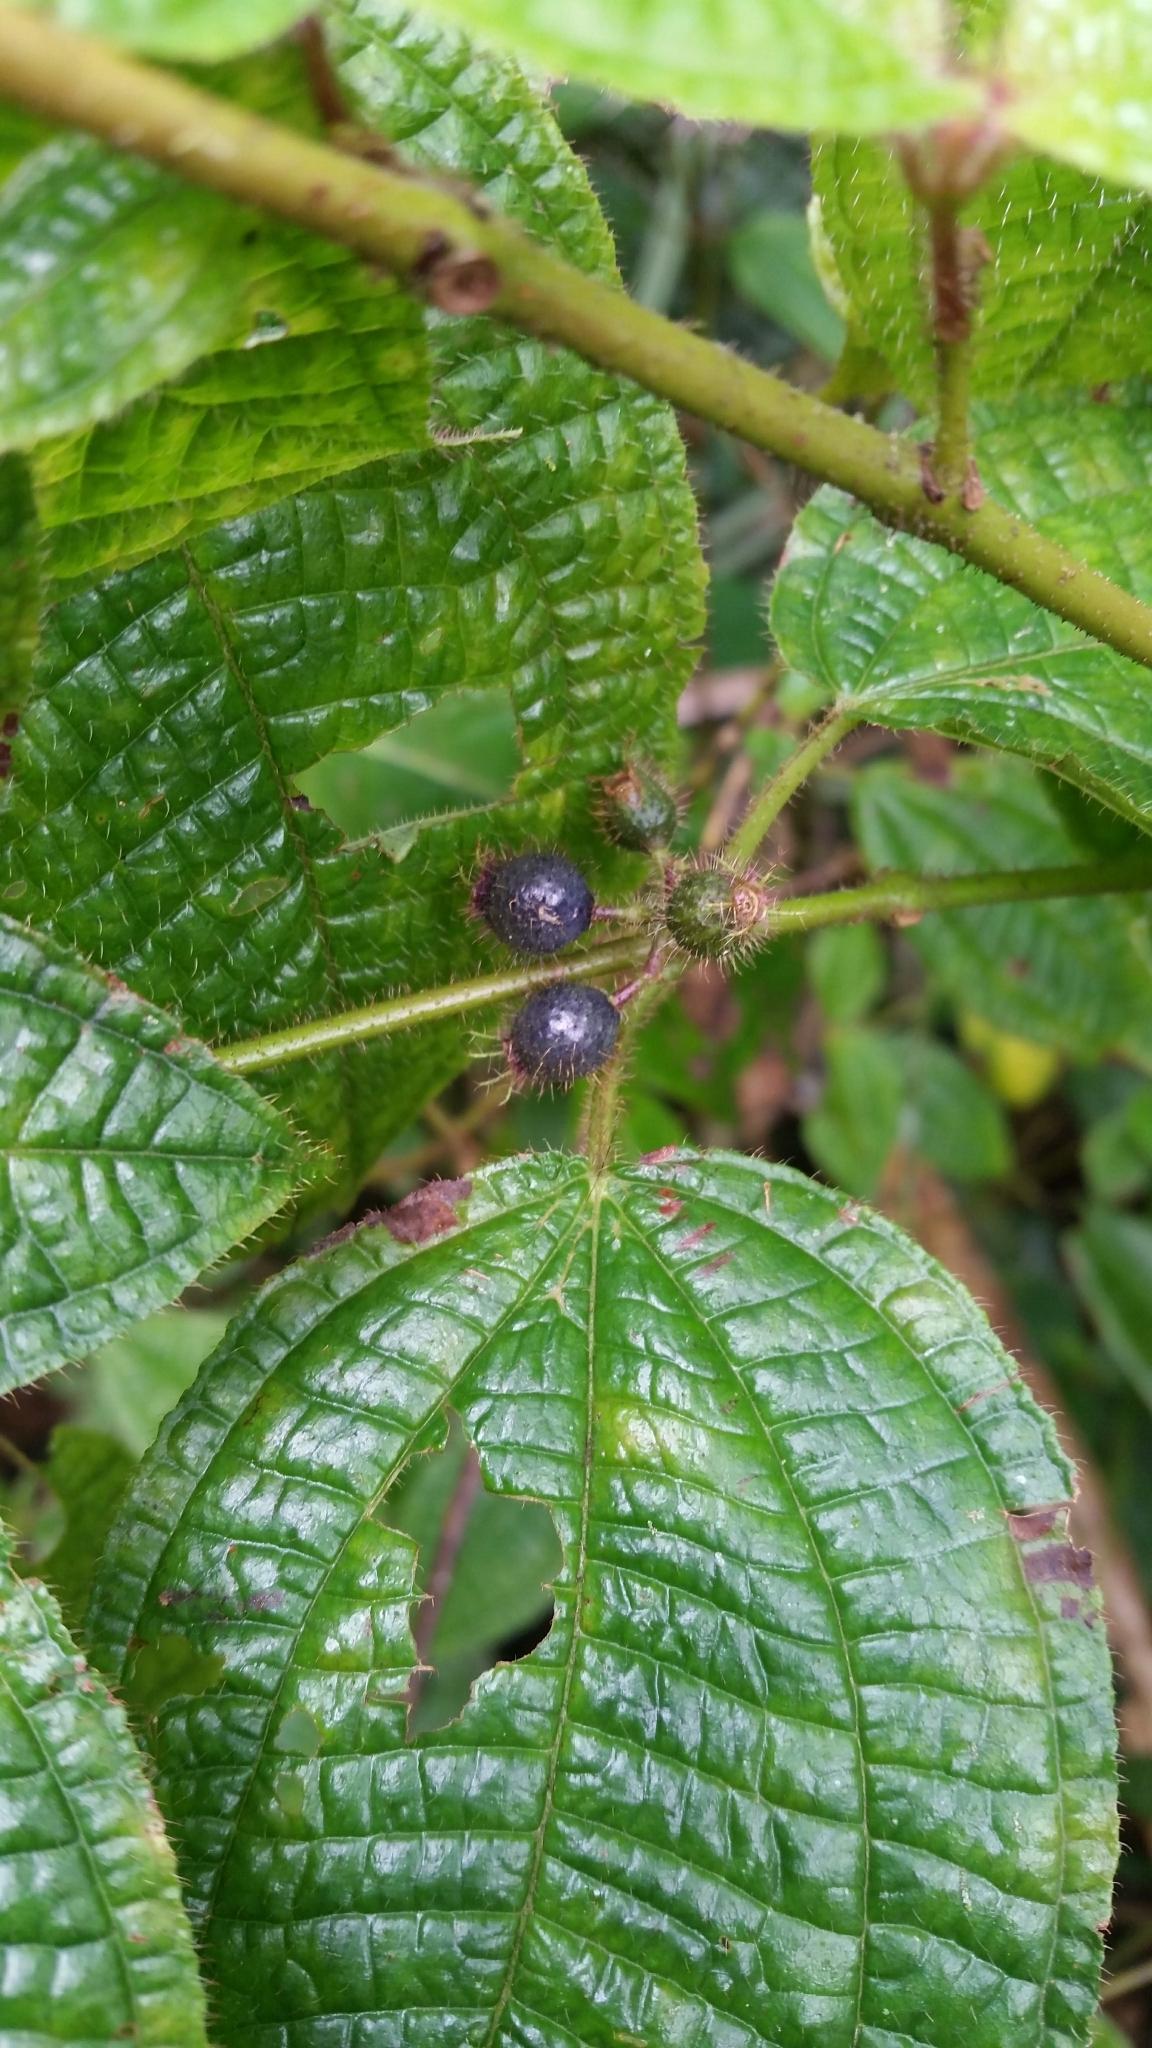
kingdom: Plantae
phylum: Tracheophyta
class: Magnoliopsida
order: Myrtales
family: Melastomataceae
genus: Miconia
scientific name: Miconia crenata
